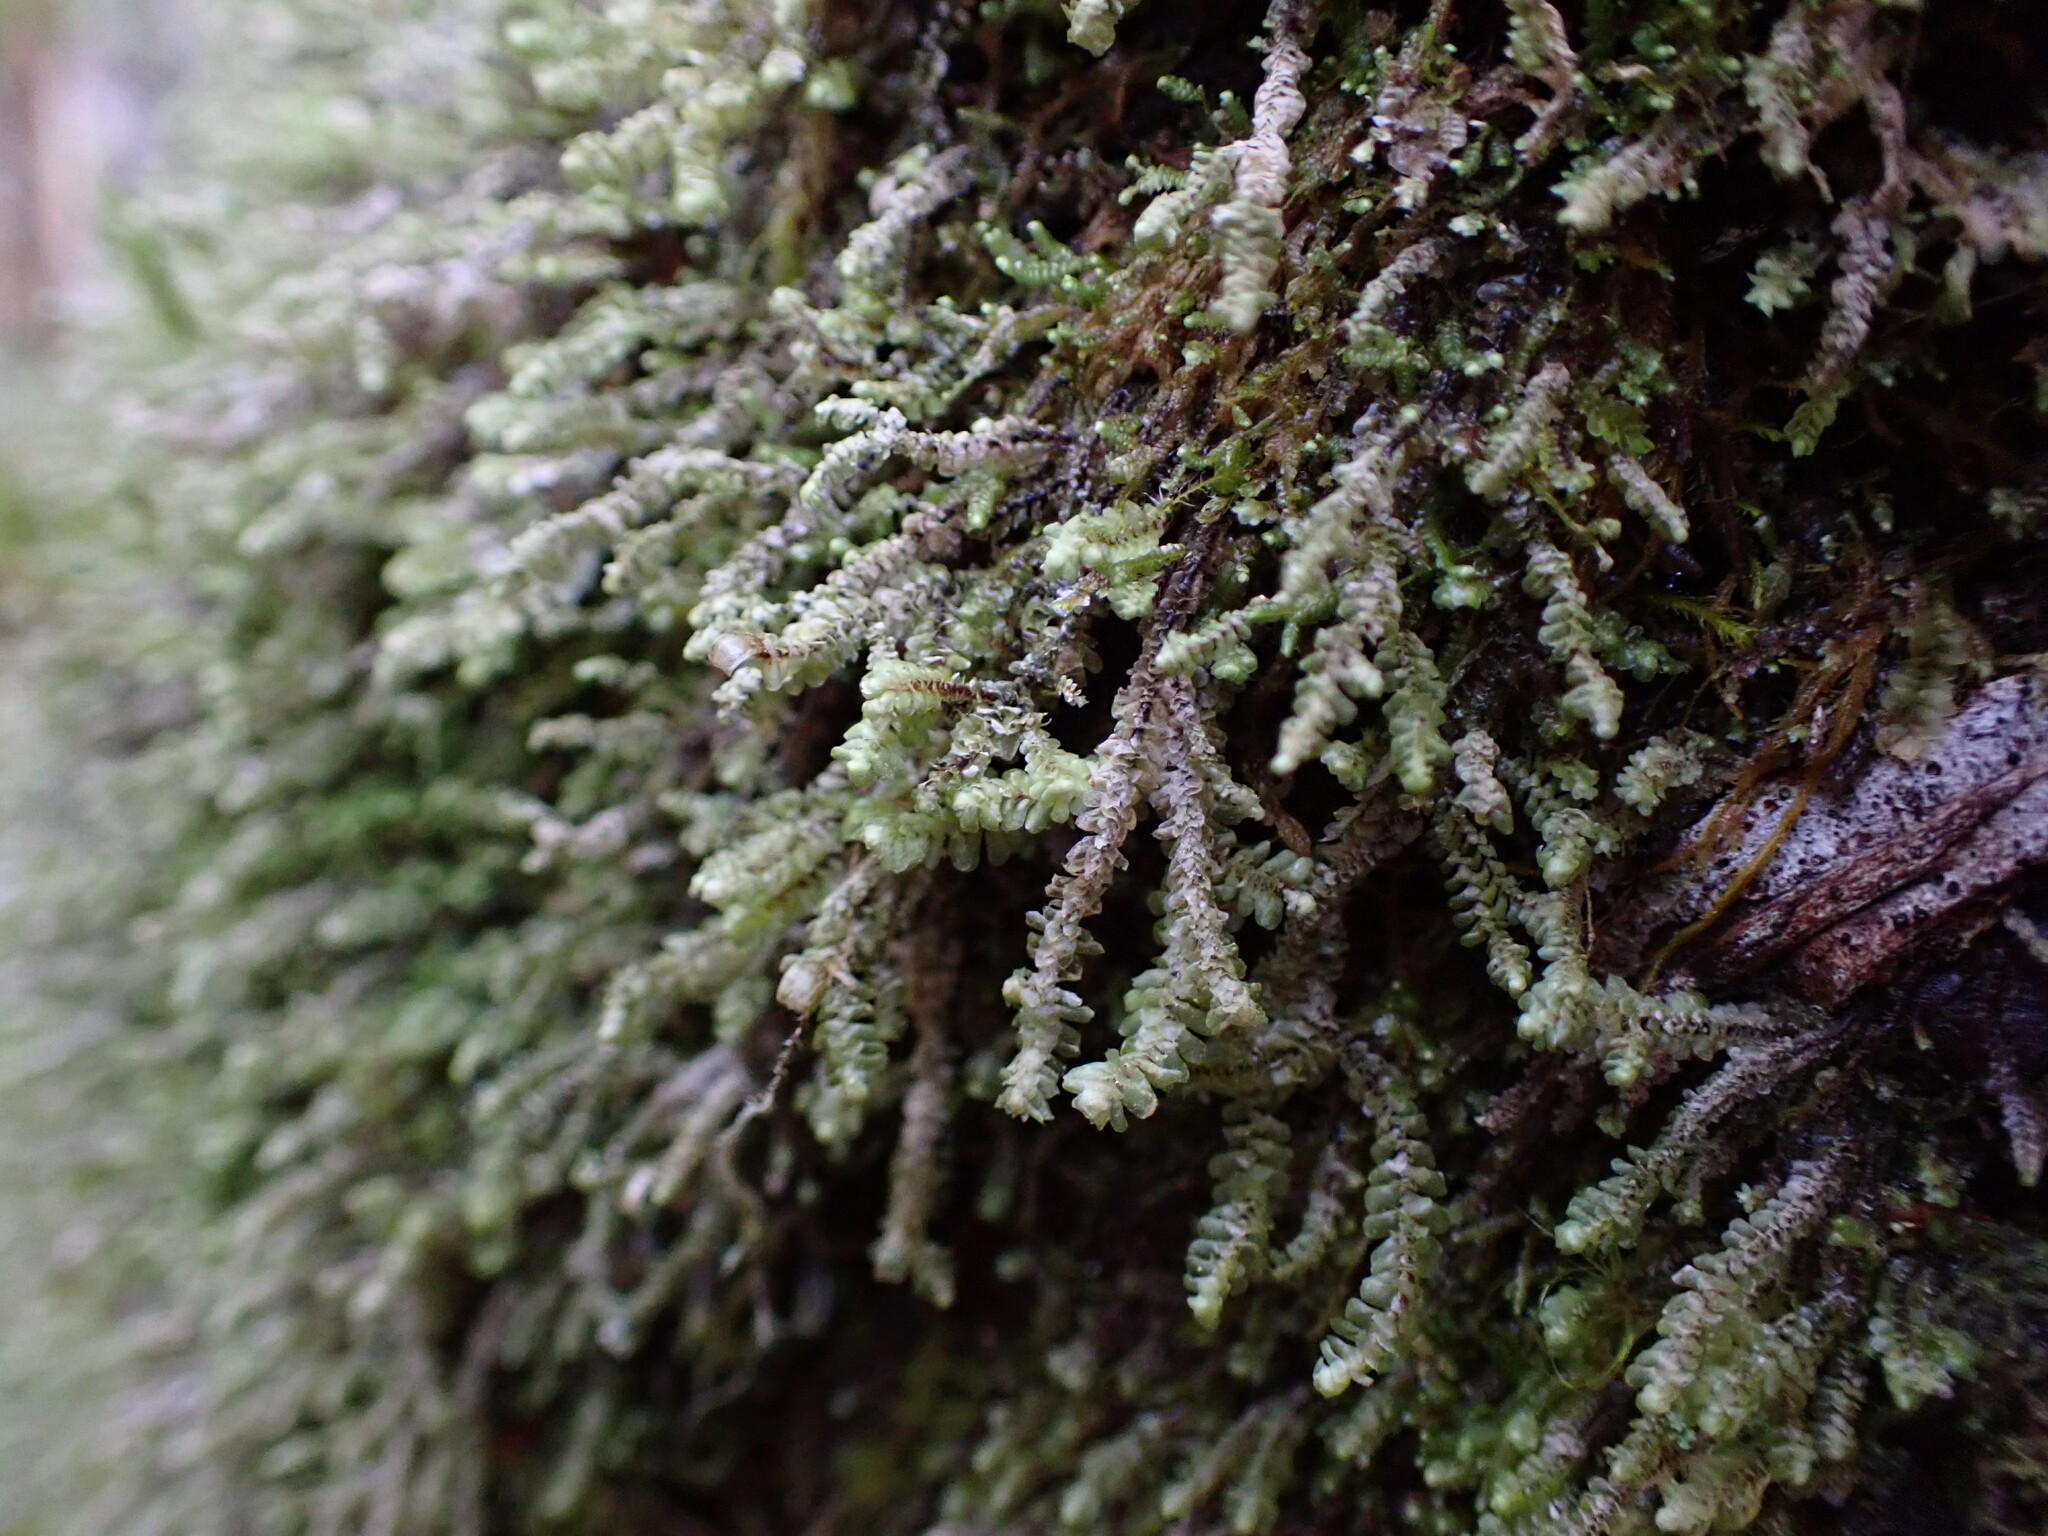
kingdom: Plantae
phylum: Marchantiophyta
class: Jungermanniopsida
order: Jungermanniales
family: Scapaniaceae
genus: Scapania
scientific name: Scapania bolanderi
